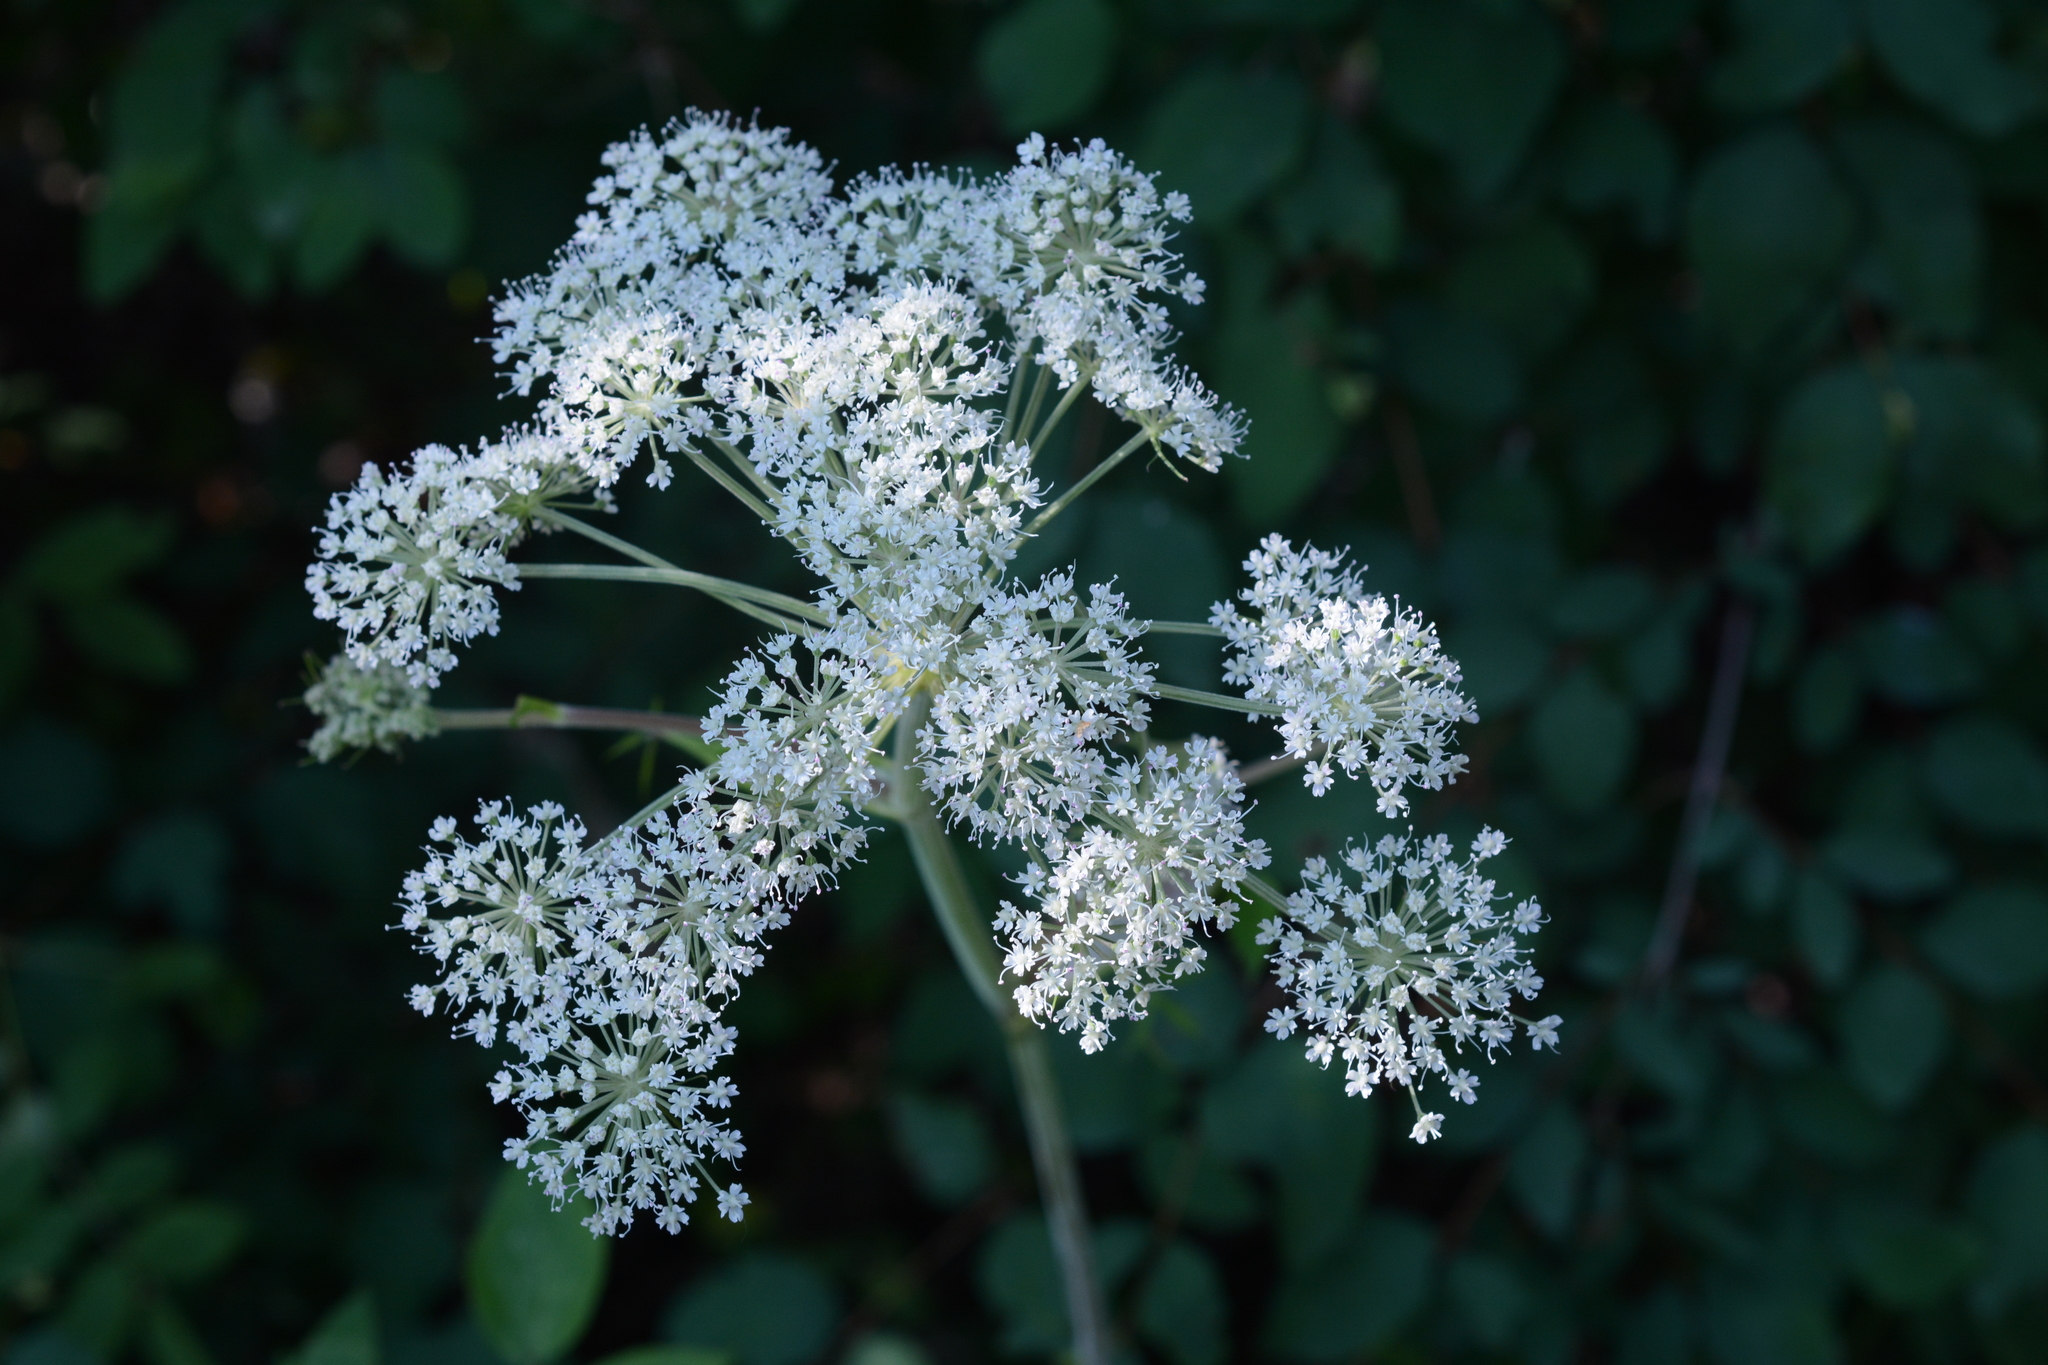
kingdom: Plantae
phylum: Tracheophyta
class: Magnoliopsida
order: Apiales
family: Apiaceae
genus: Angelica
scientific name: Angelica arguta
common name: Lyall's angelica
